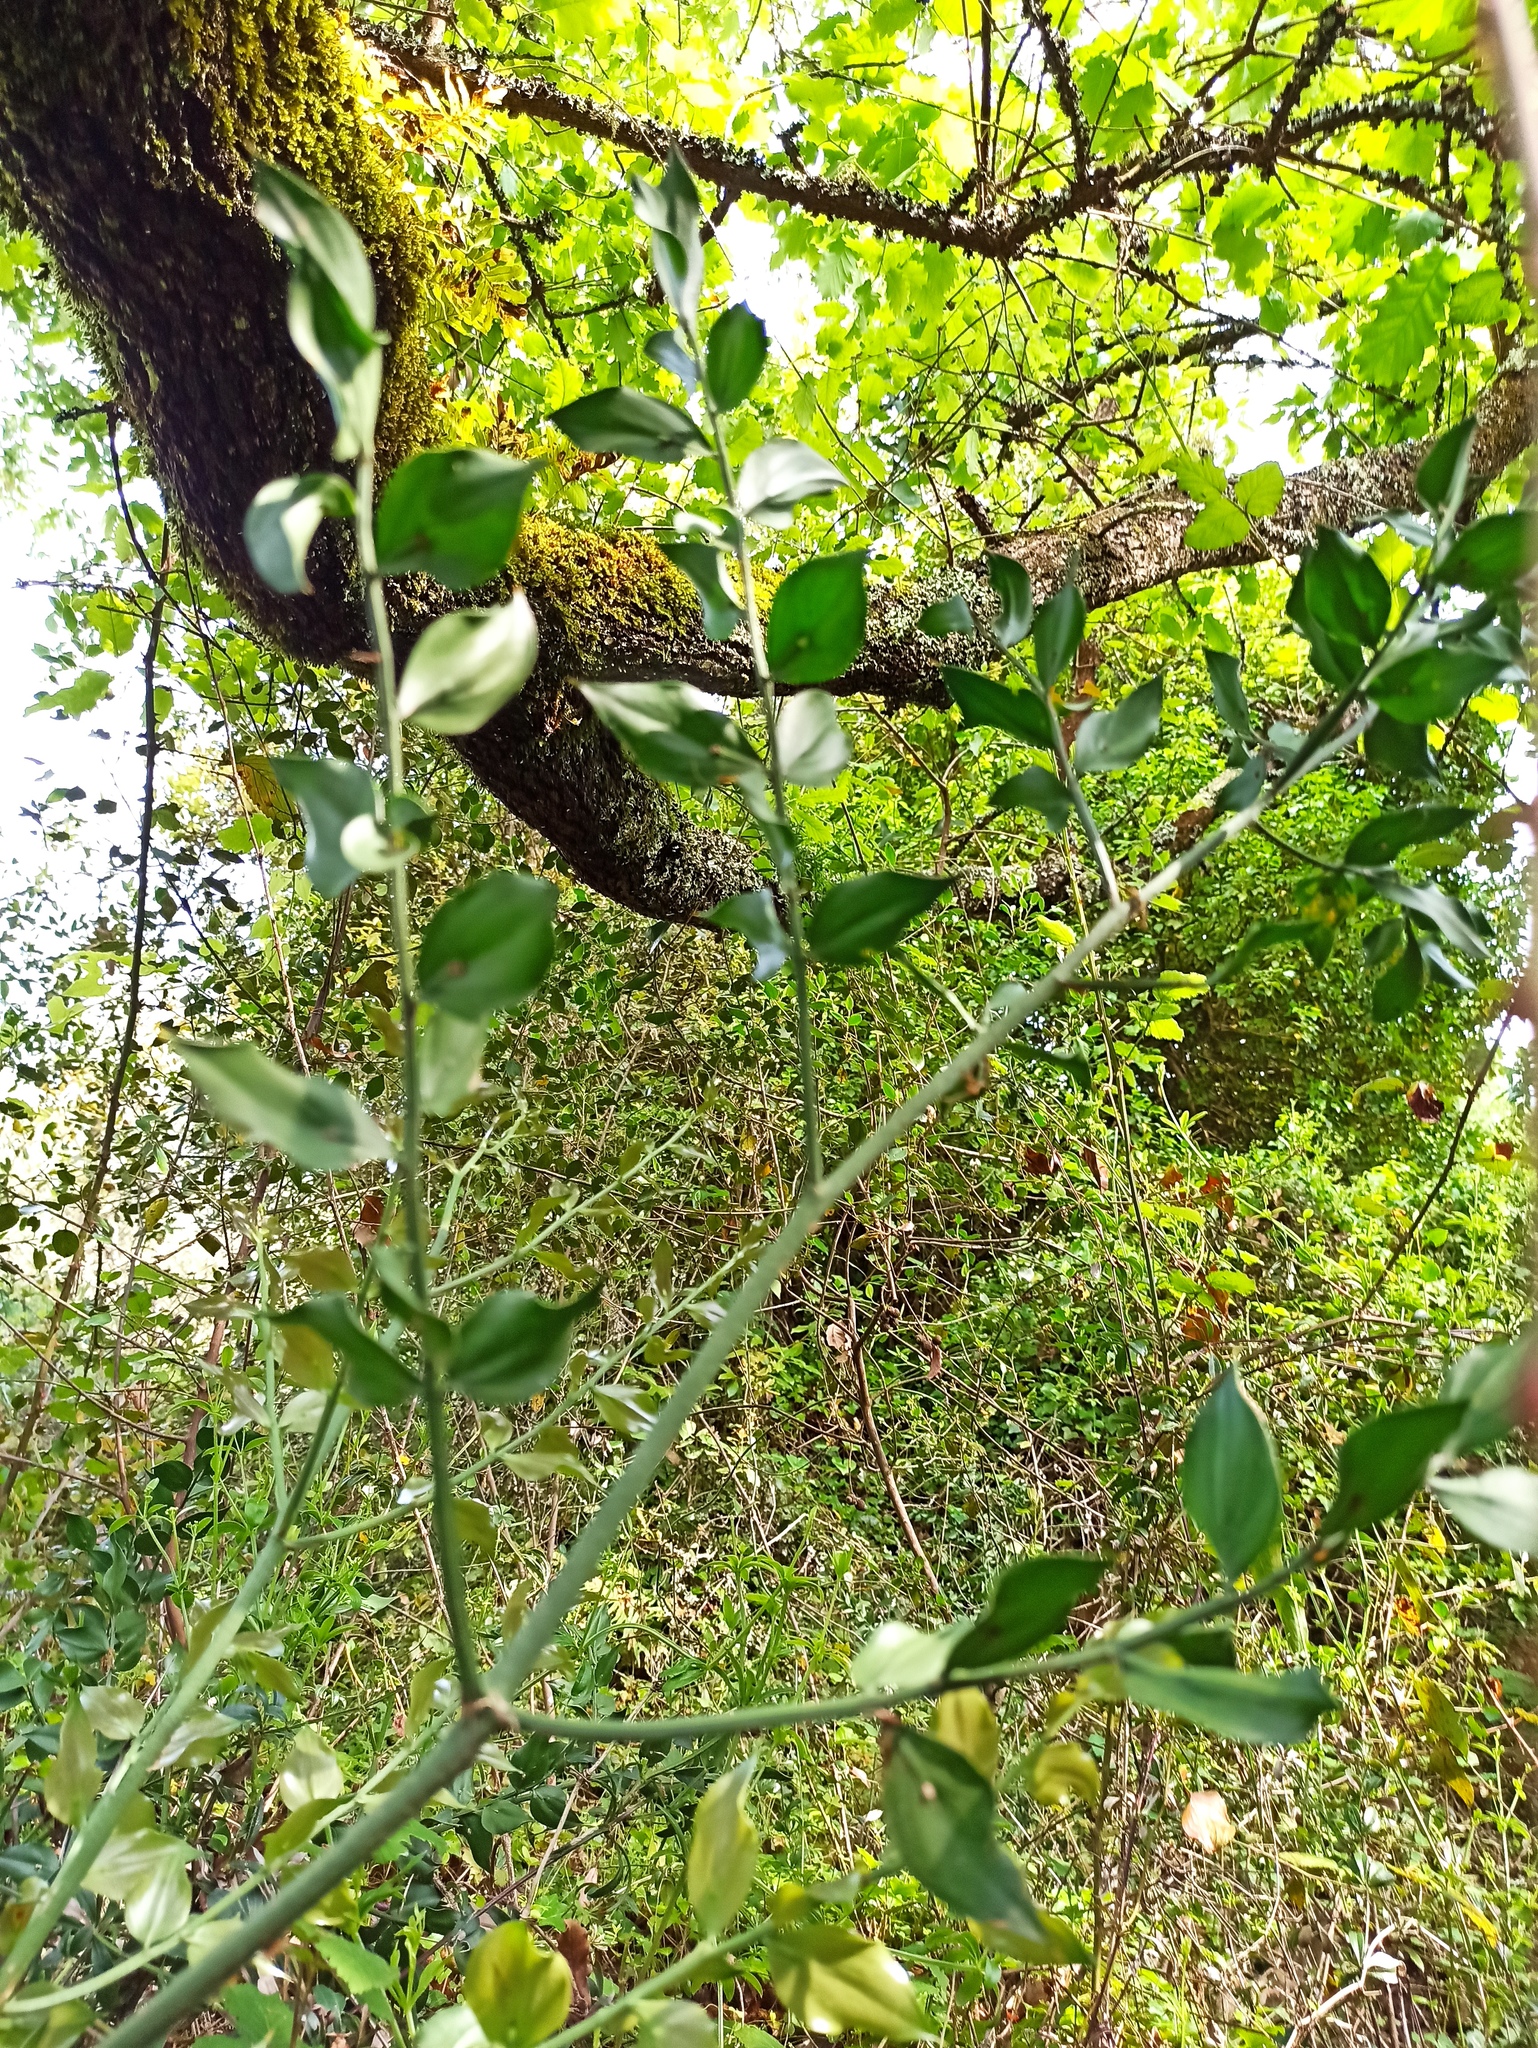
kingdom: Plantae
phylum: Tracheophyta
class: Liliopsida
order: Asparagales
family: Asparagaceae
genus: Ruscus
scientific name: Ruscus aculeatus
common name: Butcher's-broom
